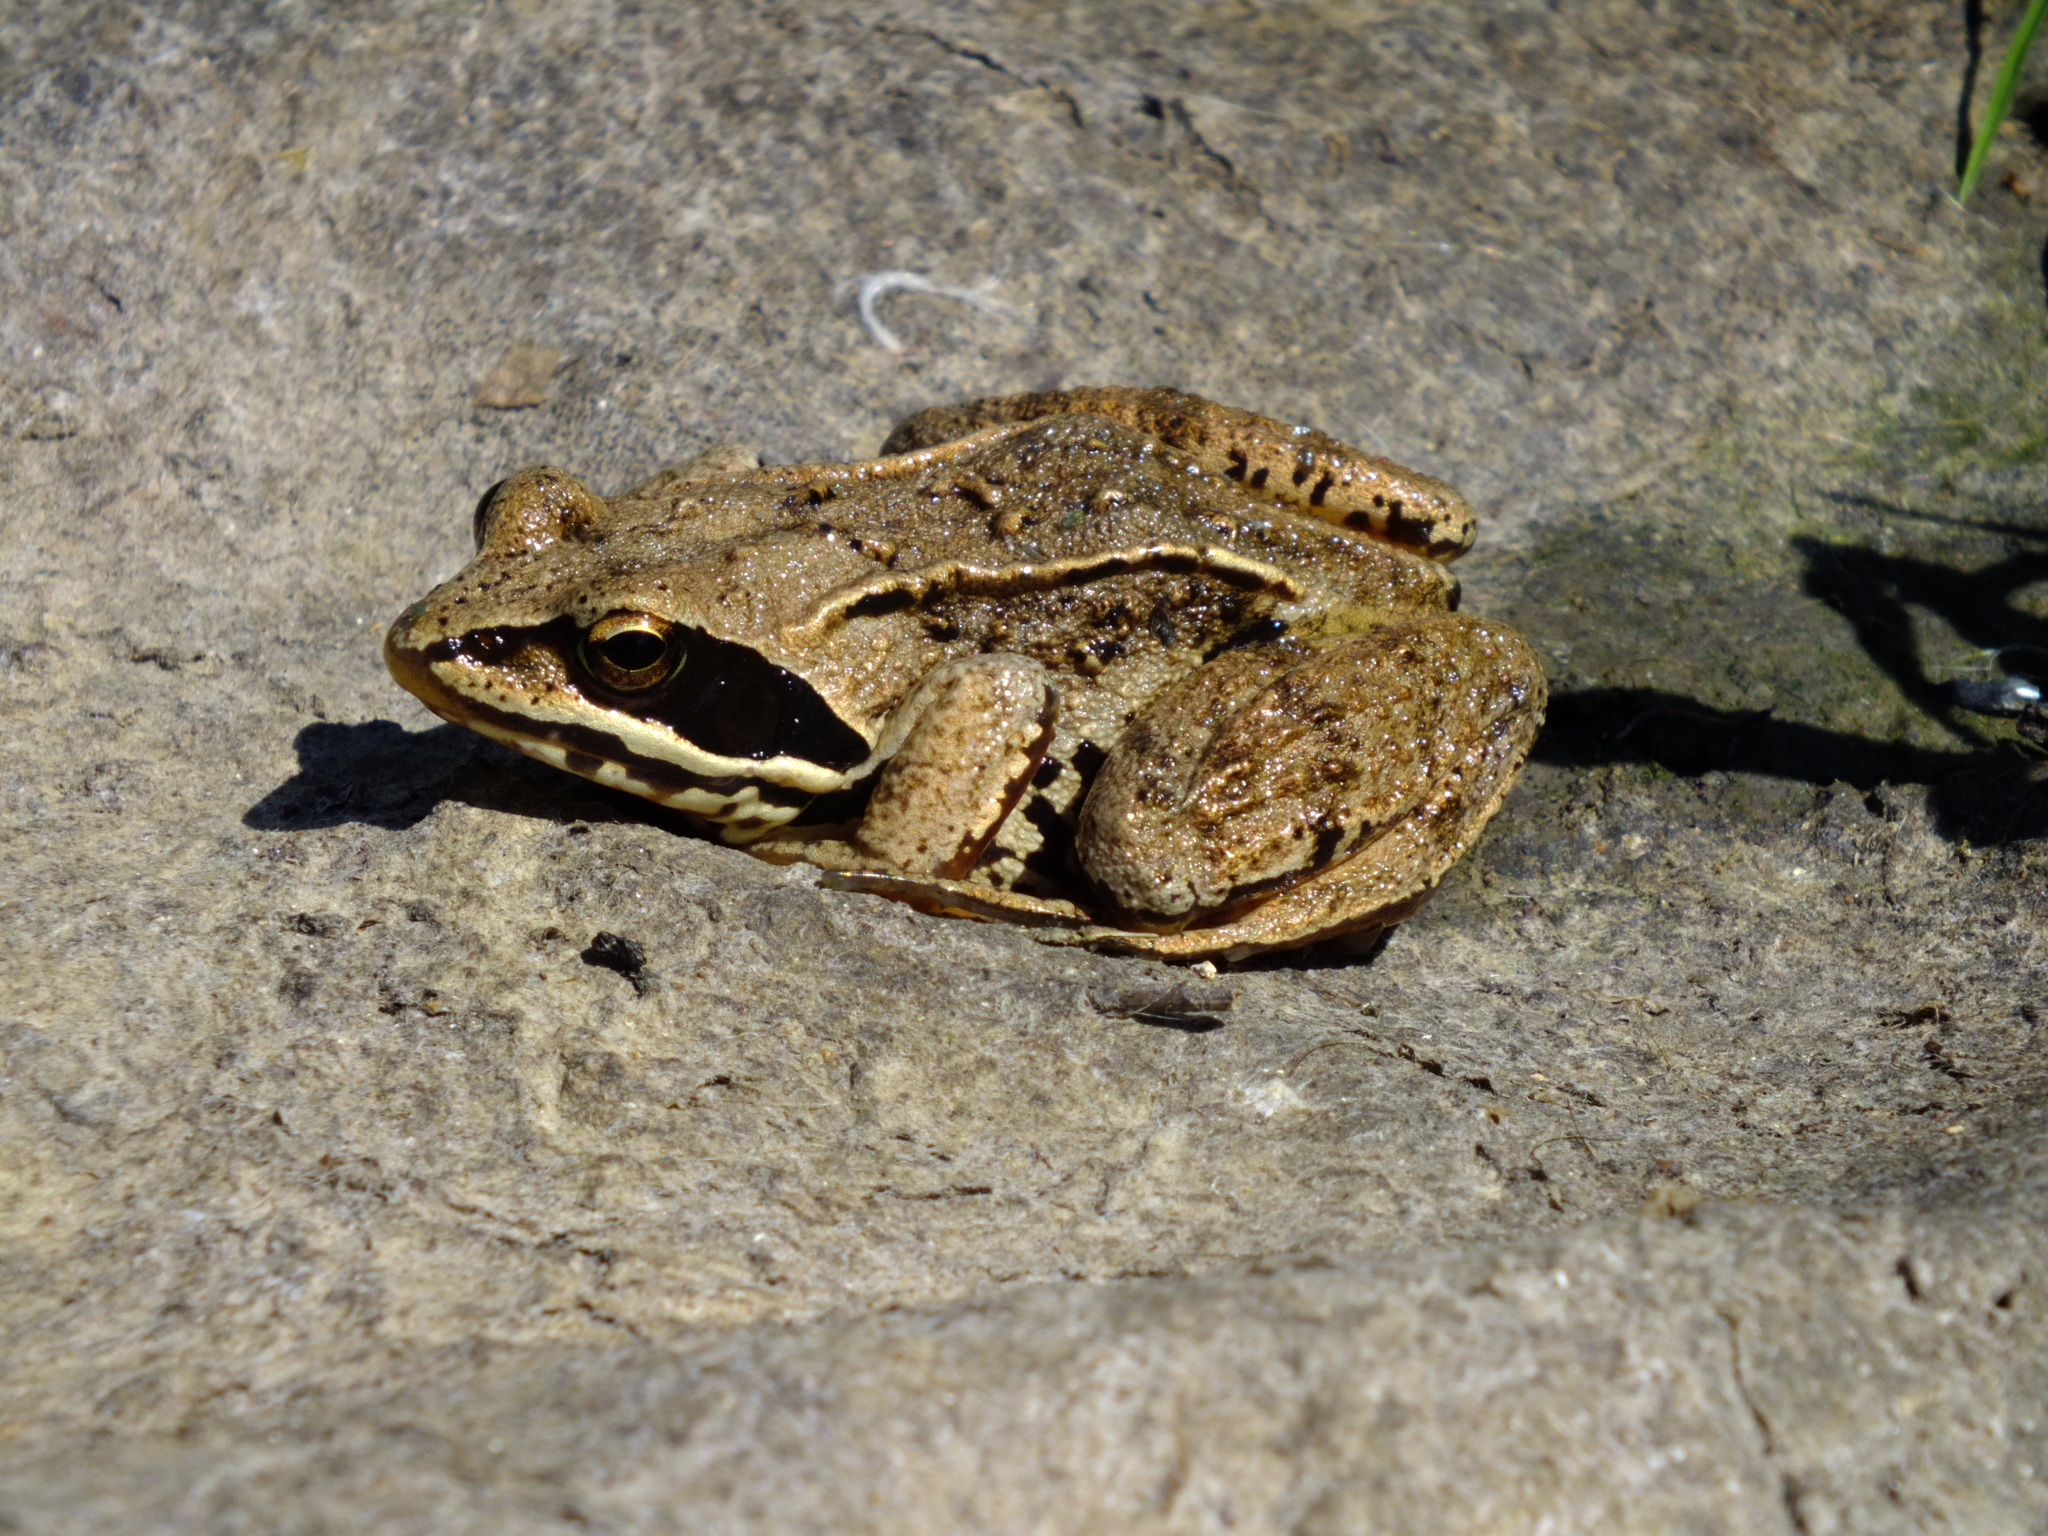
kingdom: Animalia
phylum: Chordata
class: Amphibia
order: Anura
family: Ranidae
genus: Rana
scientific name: Rana arvalis
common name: Moor frog
